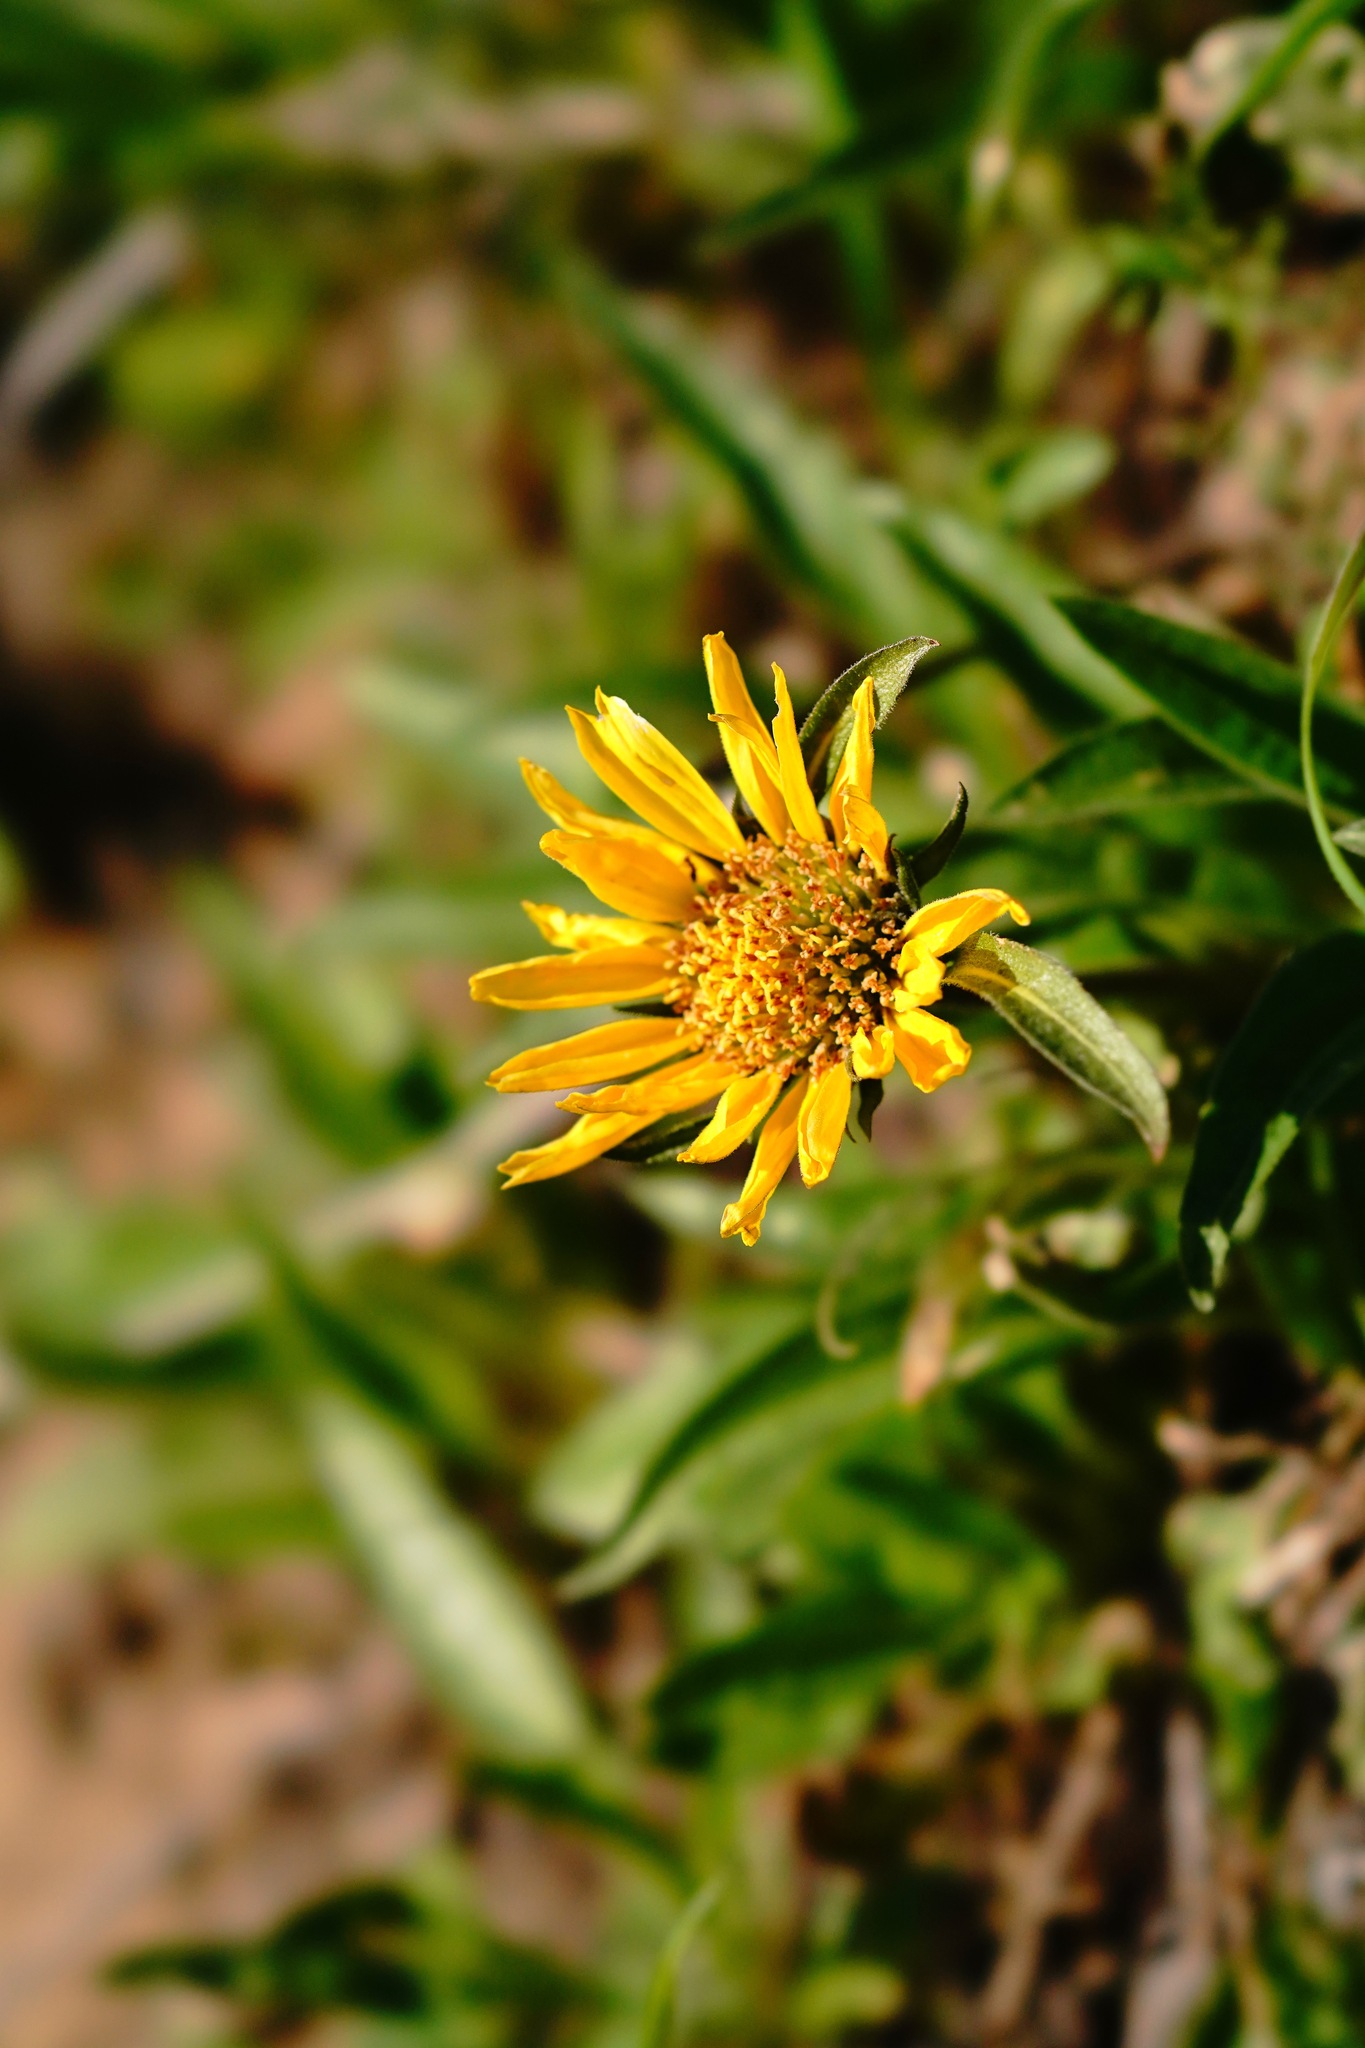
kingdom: Plantae
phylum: Tracheophyta
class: Magnoliopsida
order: Asterales
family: Asteraceae
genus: Helianthella
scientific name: Helianthella castanea
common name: Diablo helianthella
